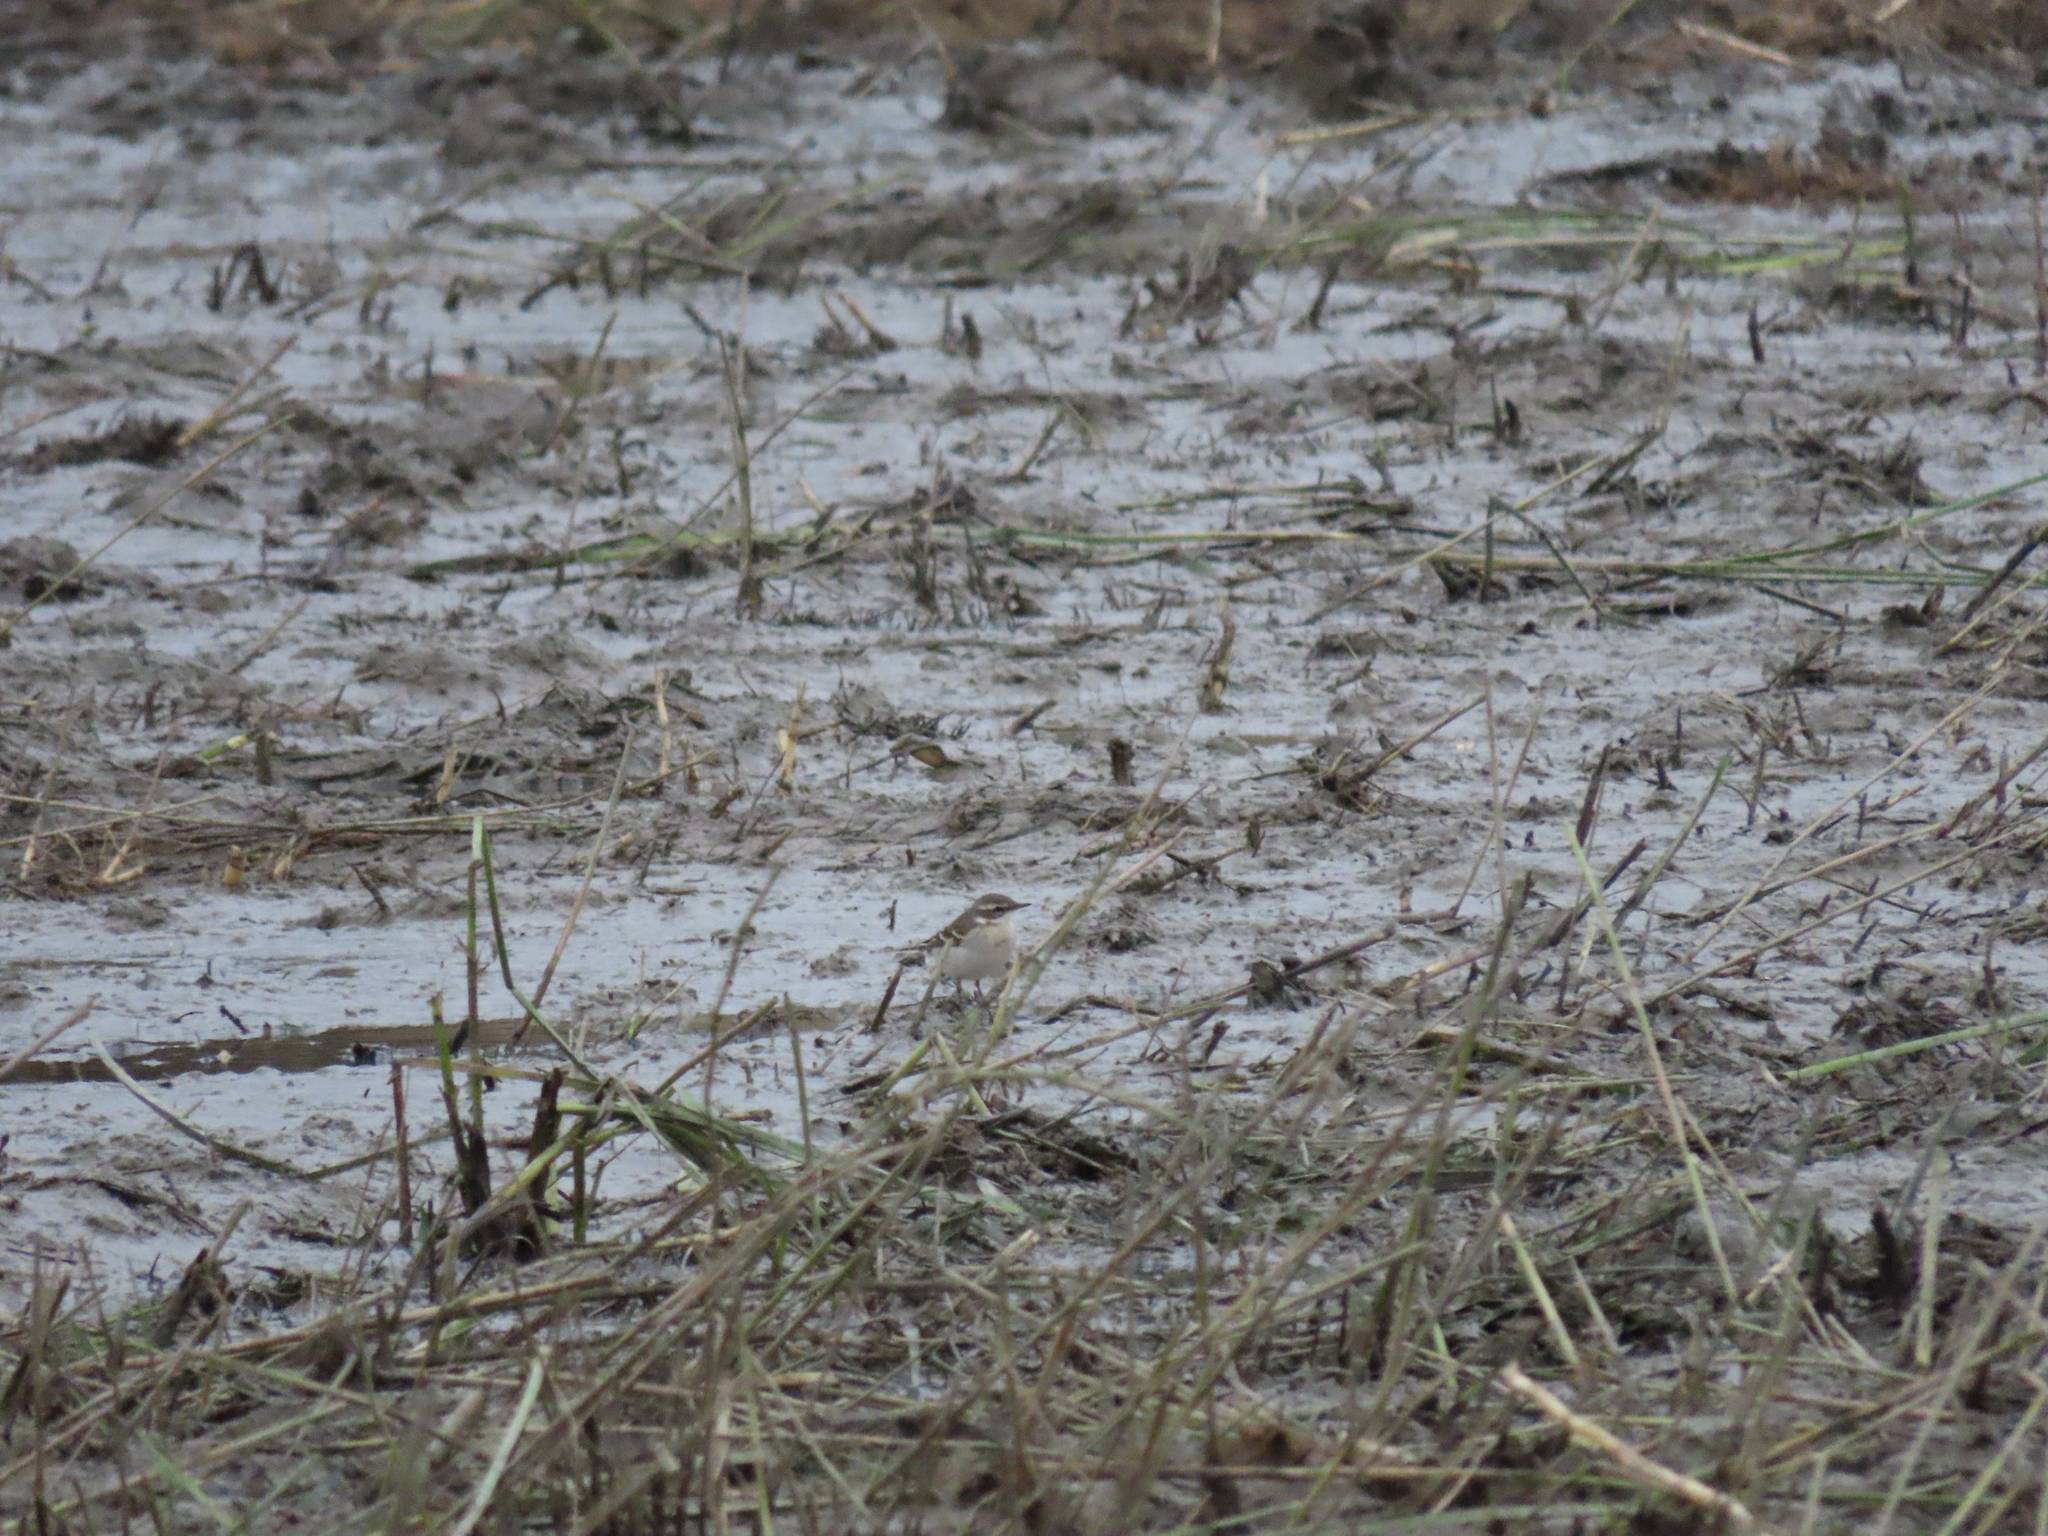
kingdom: Animalia
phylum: Chordata
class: Aves
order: Passeriformes
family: Motacillidae
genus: Motacilla
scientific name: Motacilla tschutschensis
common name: Eastern yellow wagtail
